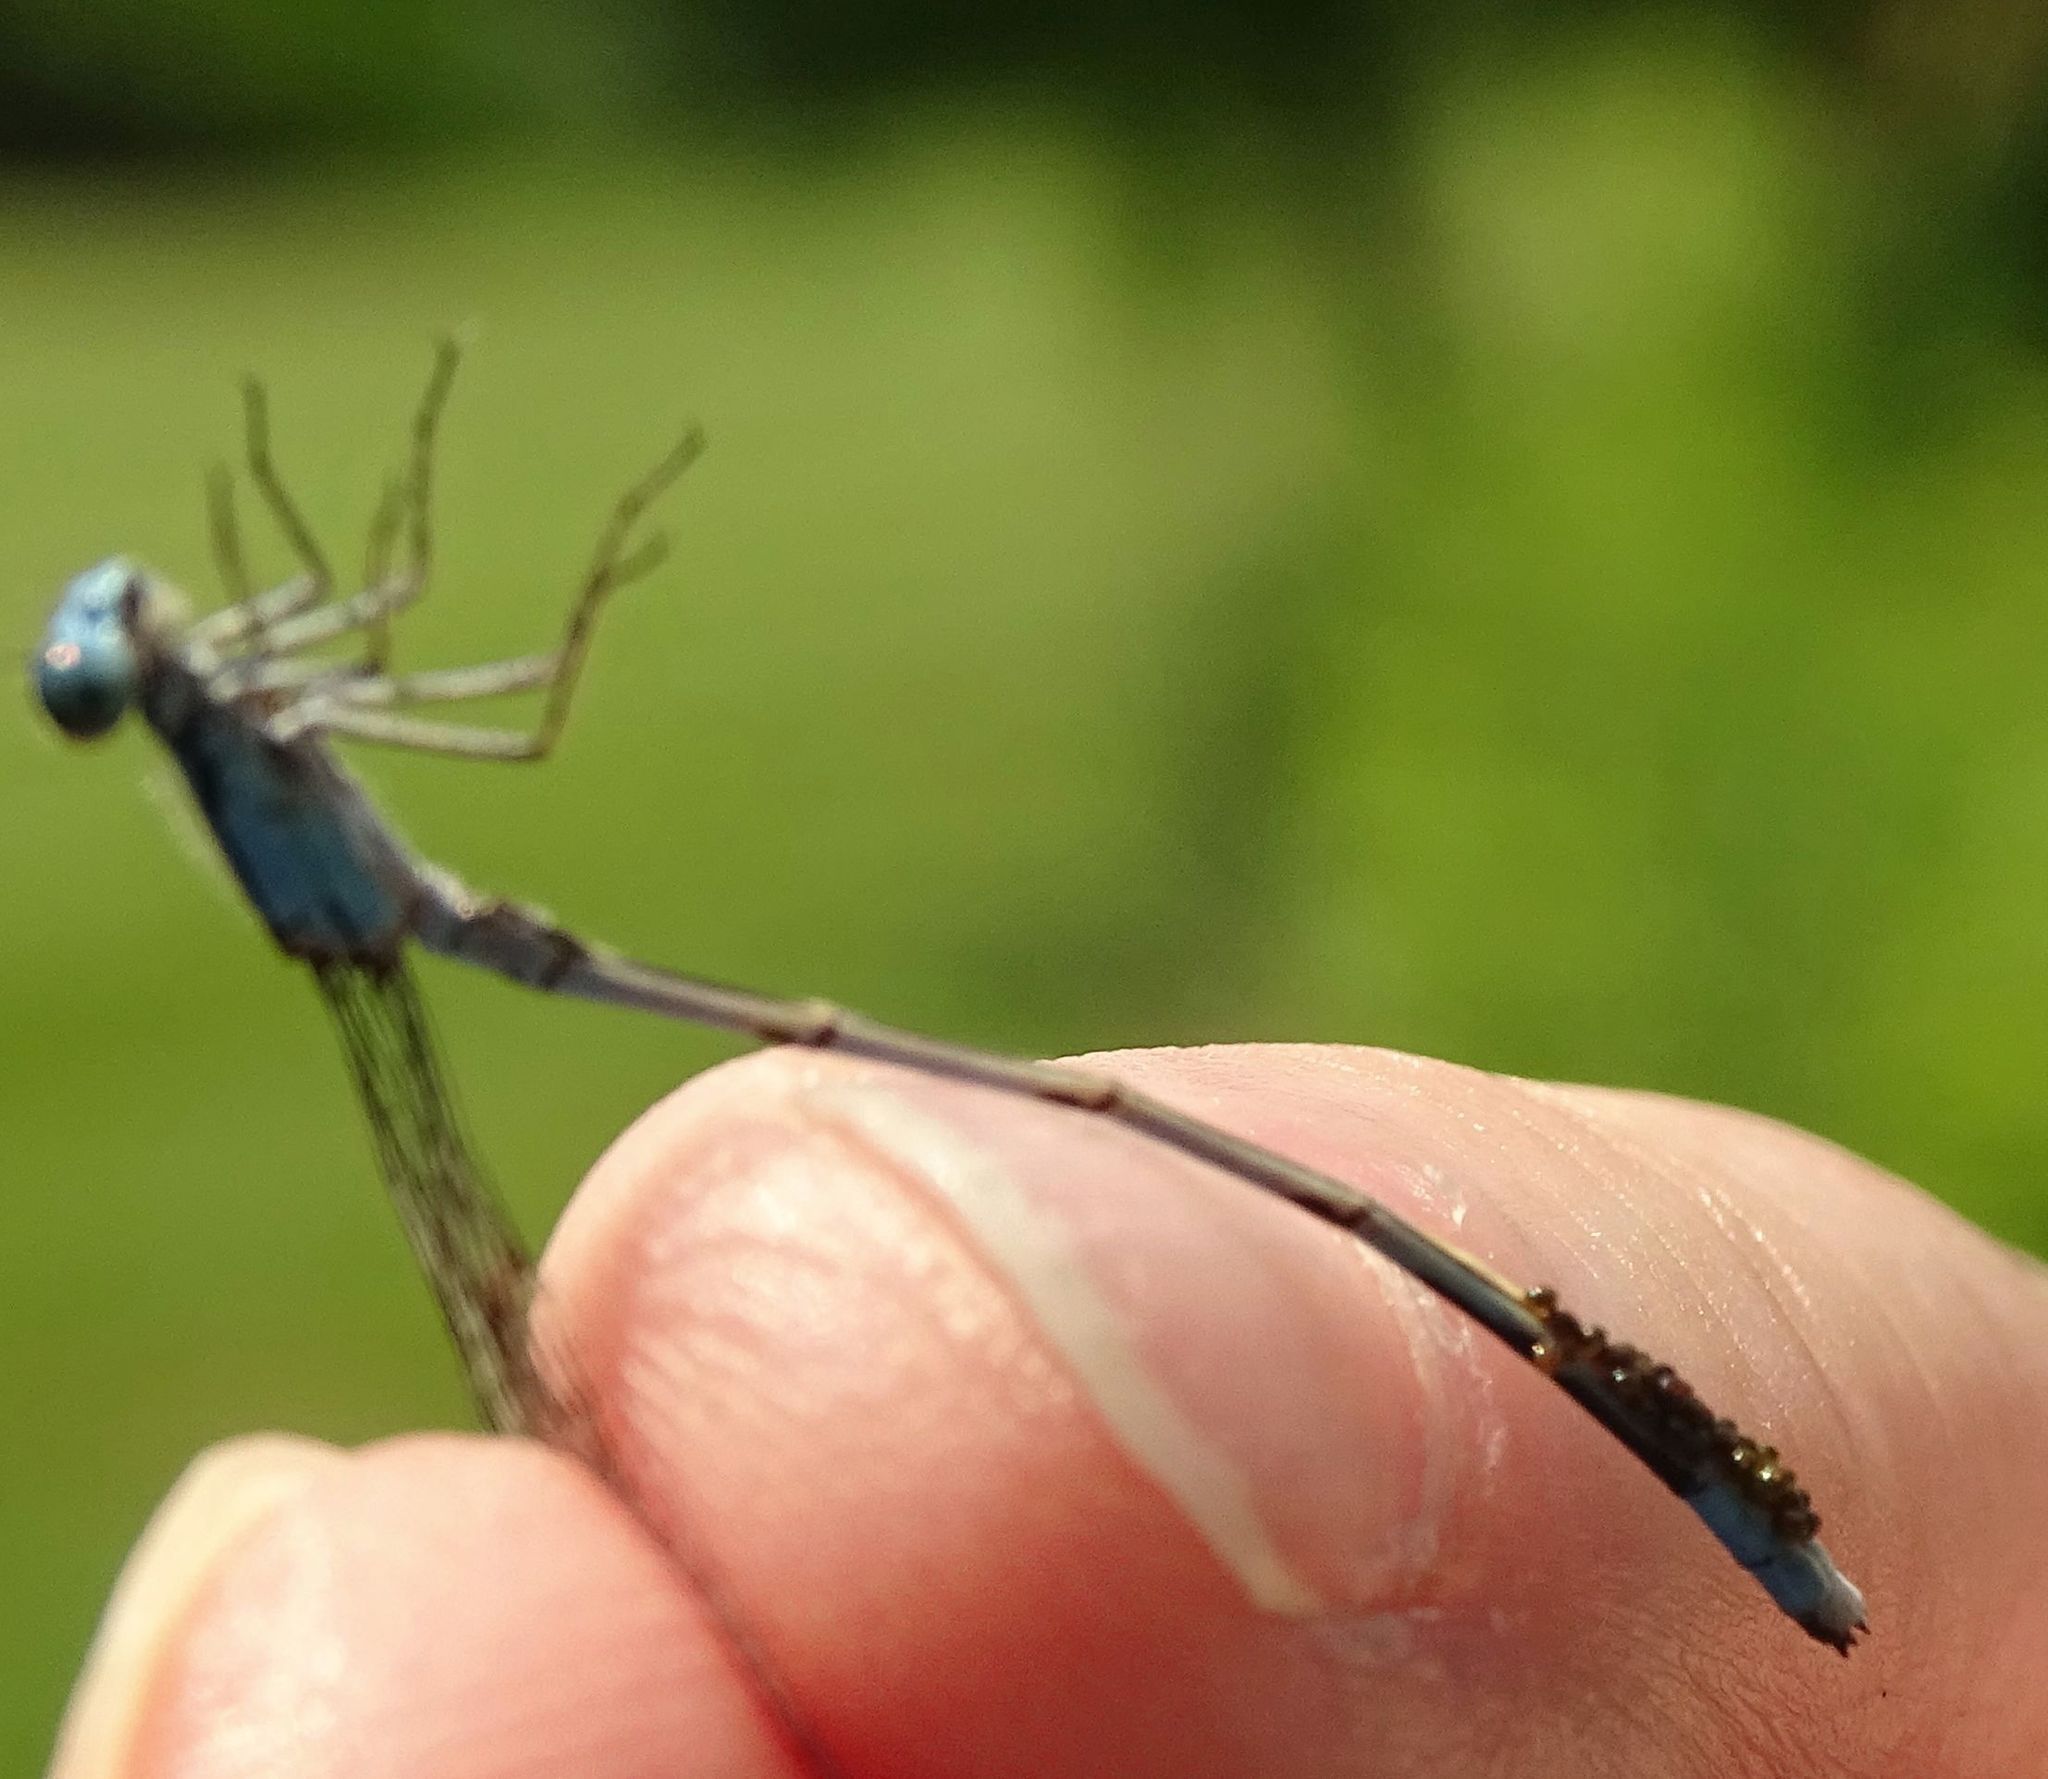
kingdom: Animalia
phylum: Arthropoda
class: Insecta
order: Odonata
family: Coenagrionidae
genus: Enallagma
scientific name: Enallagma ebrium
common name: Marsh bluet
